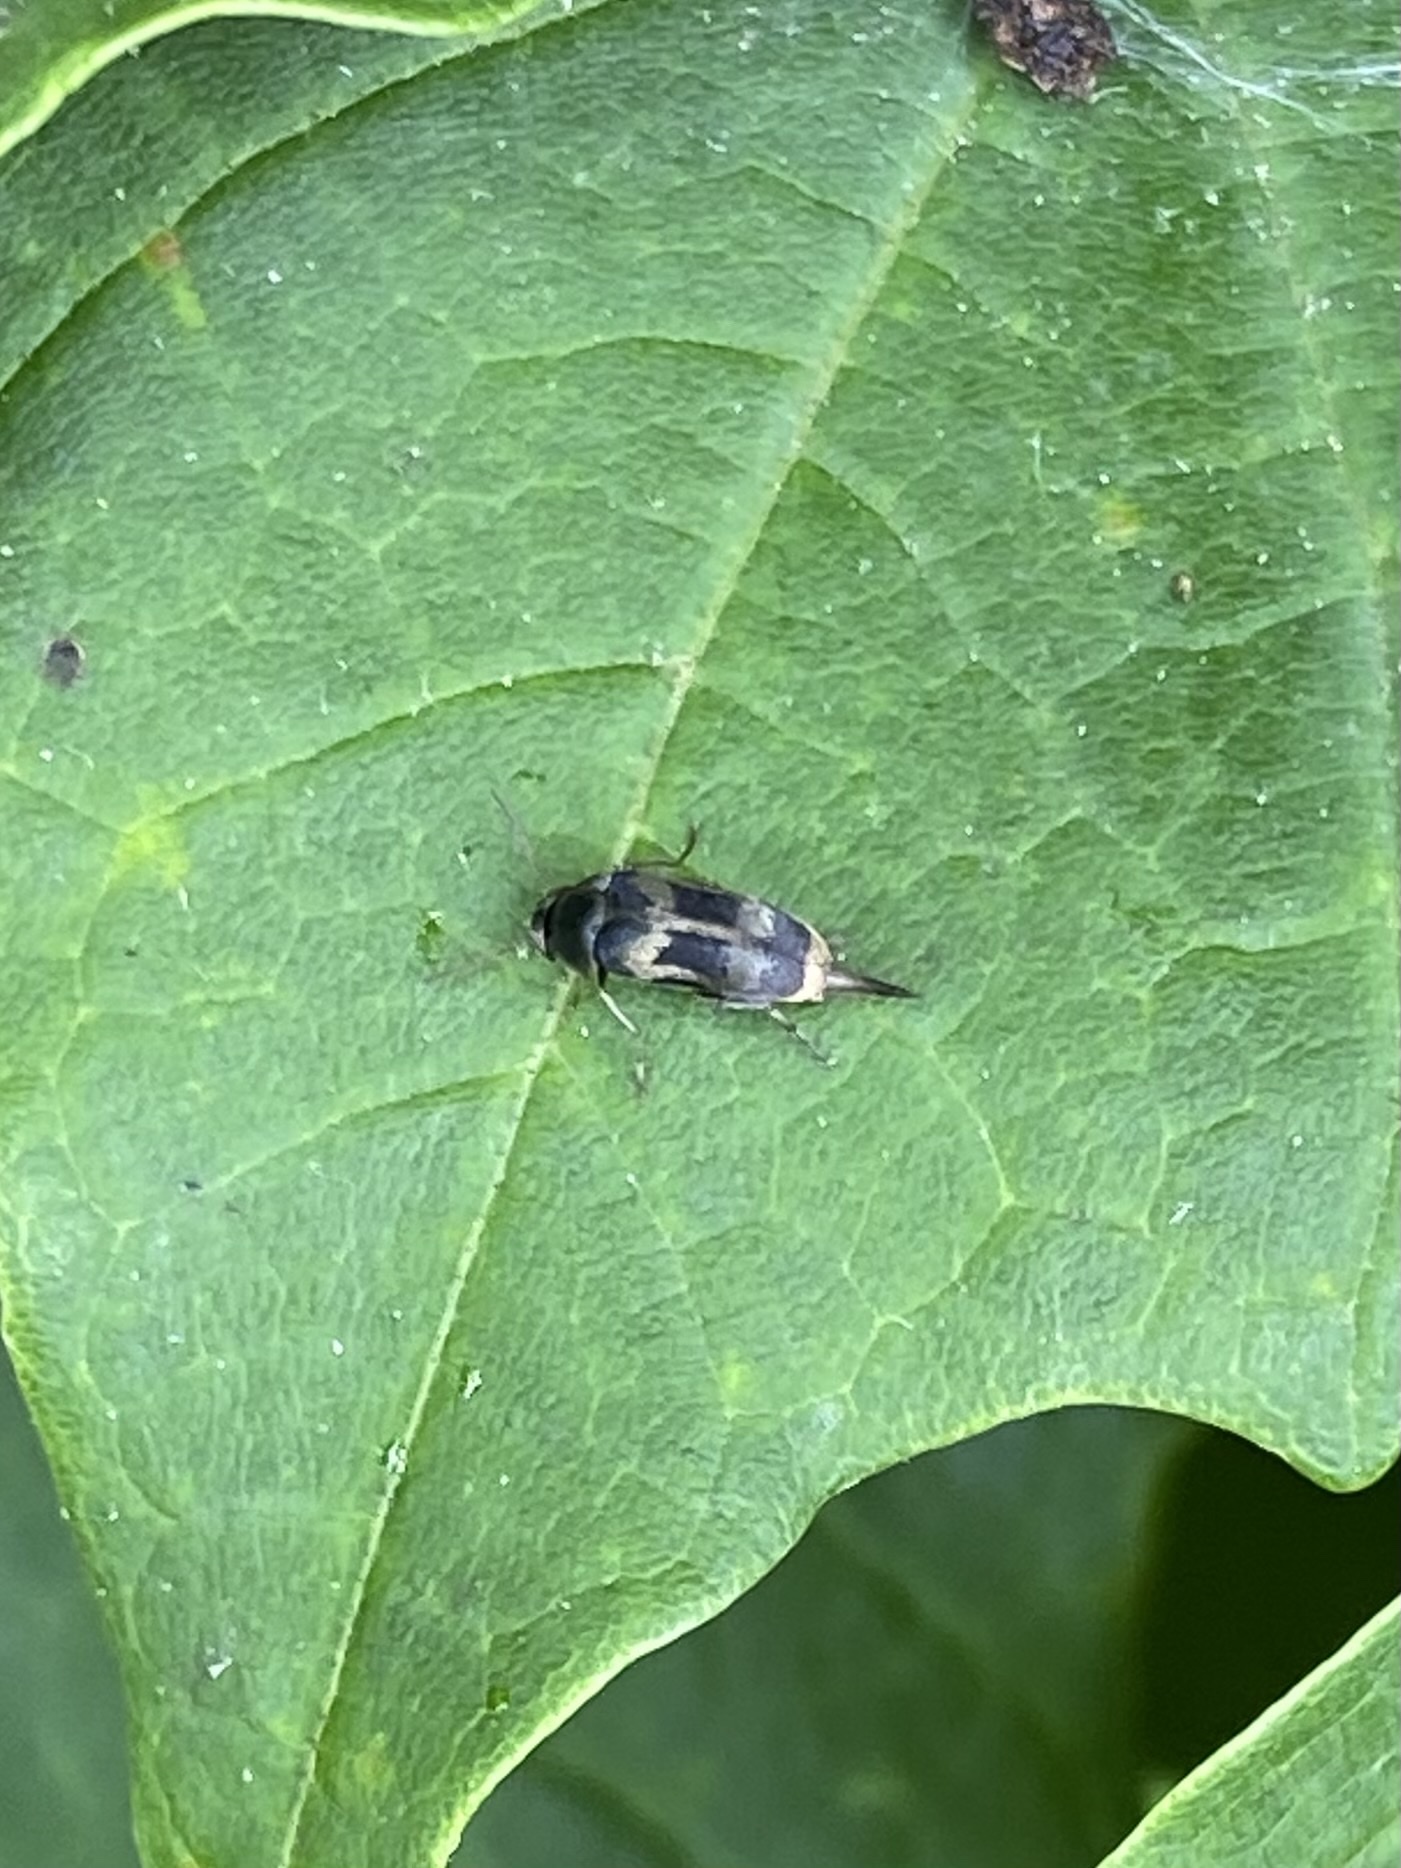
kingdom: Animalia
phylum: Arthropoda
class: Insecta
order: Coleoptera
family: Mordellidae
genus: Falsomordellistena
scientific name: Falsomordellistena hebraica
